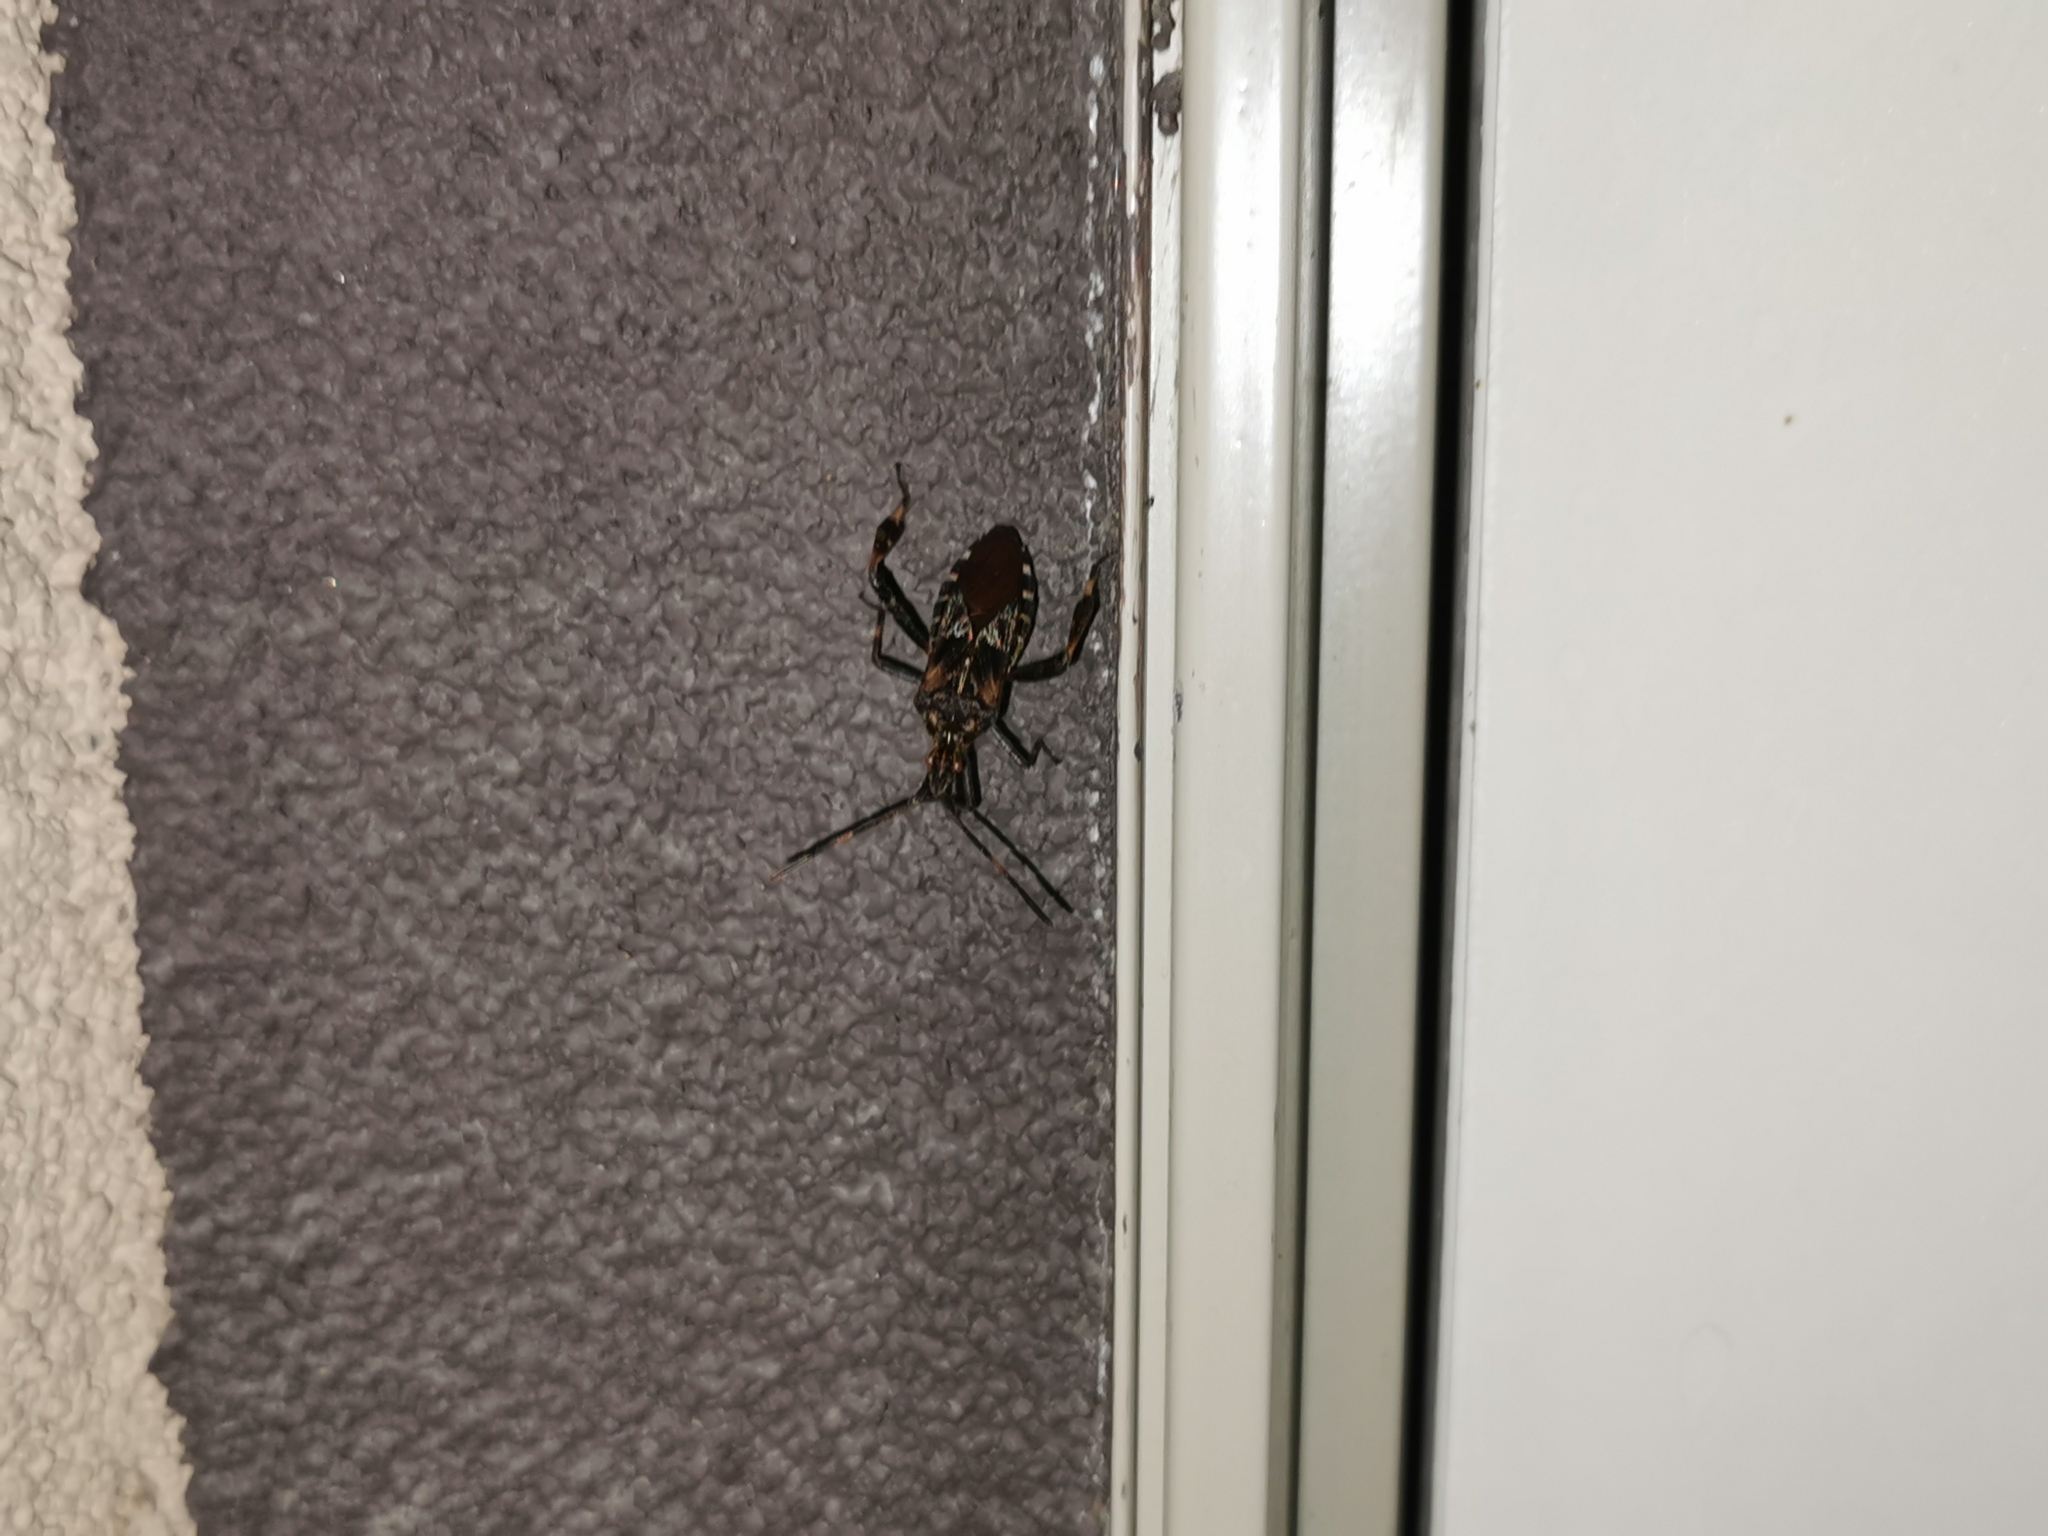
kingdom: Animalia
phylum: Arthropoda
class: Insecta
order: Hemiptera
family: Coreidae
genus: Leptoglossus
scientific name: Leptoglossus occidentalis
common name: Western conifer-seed bug
